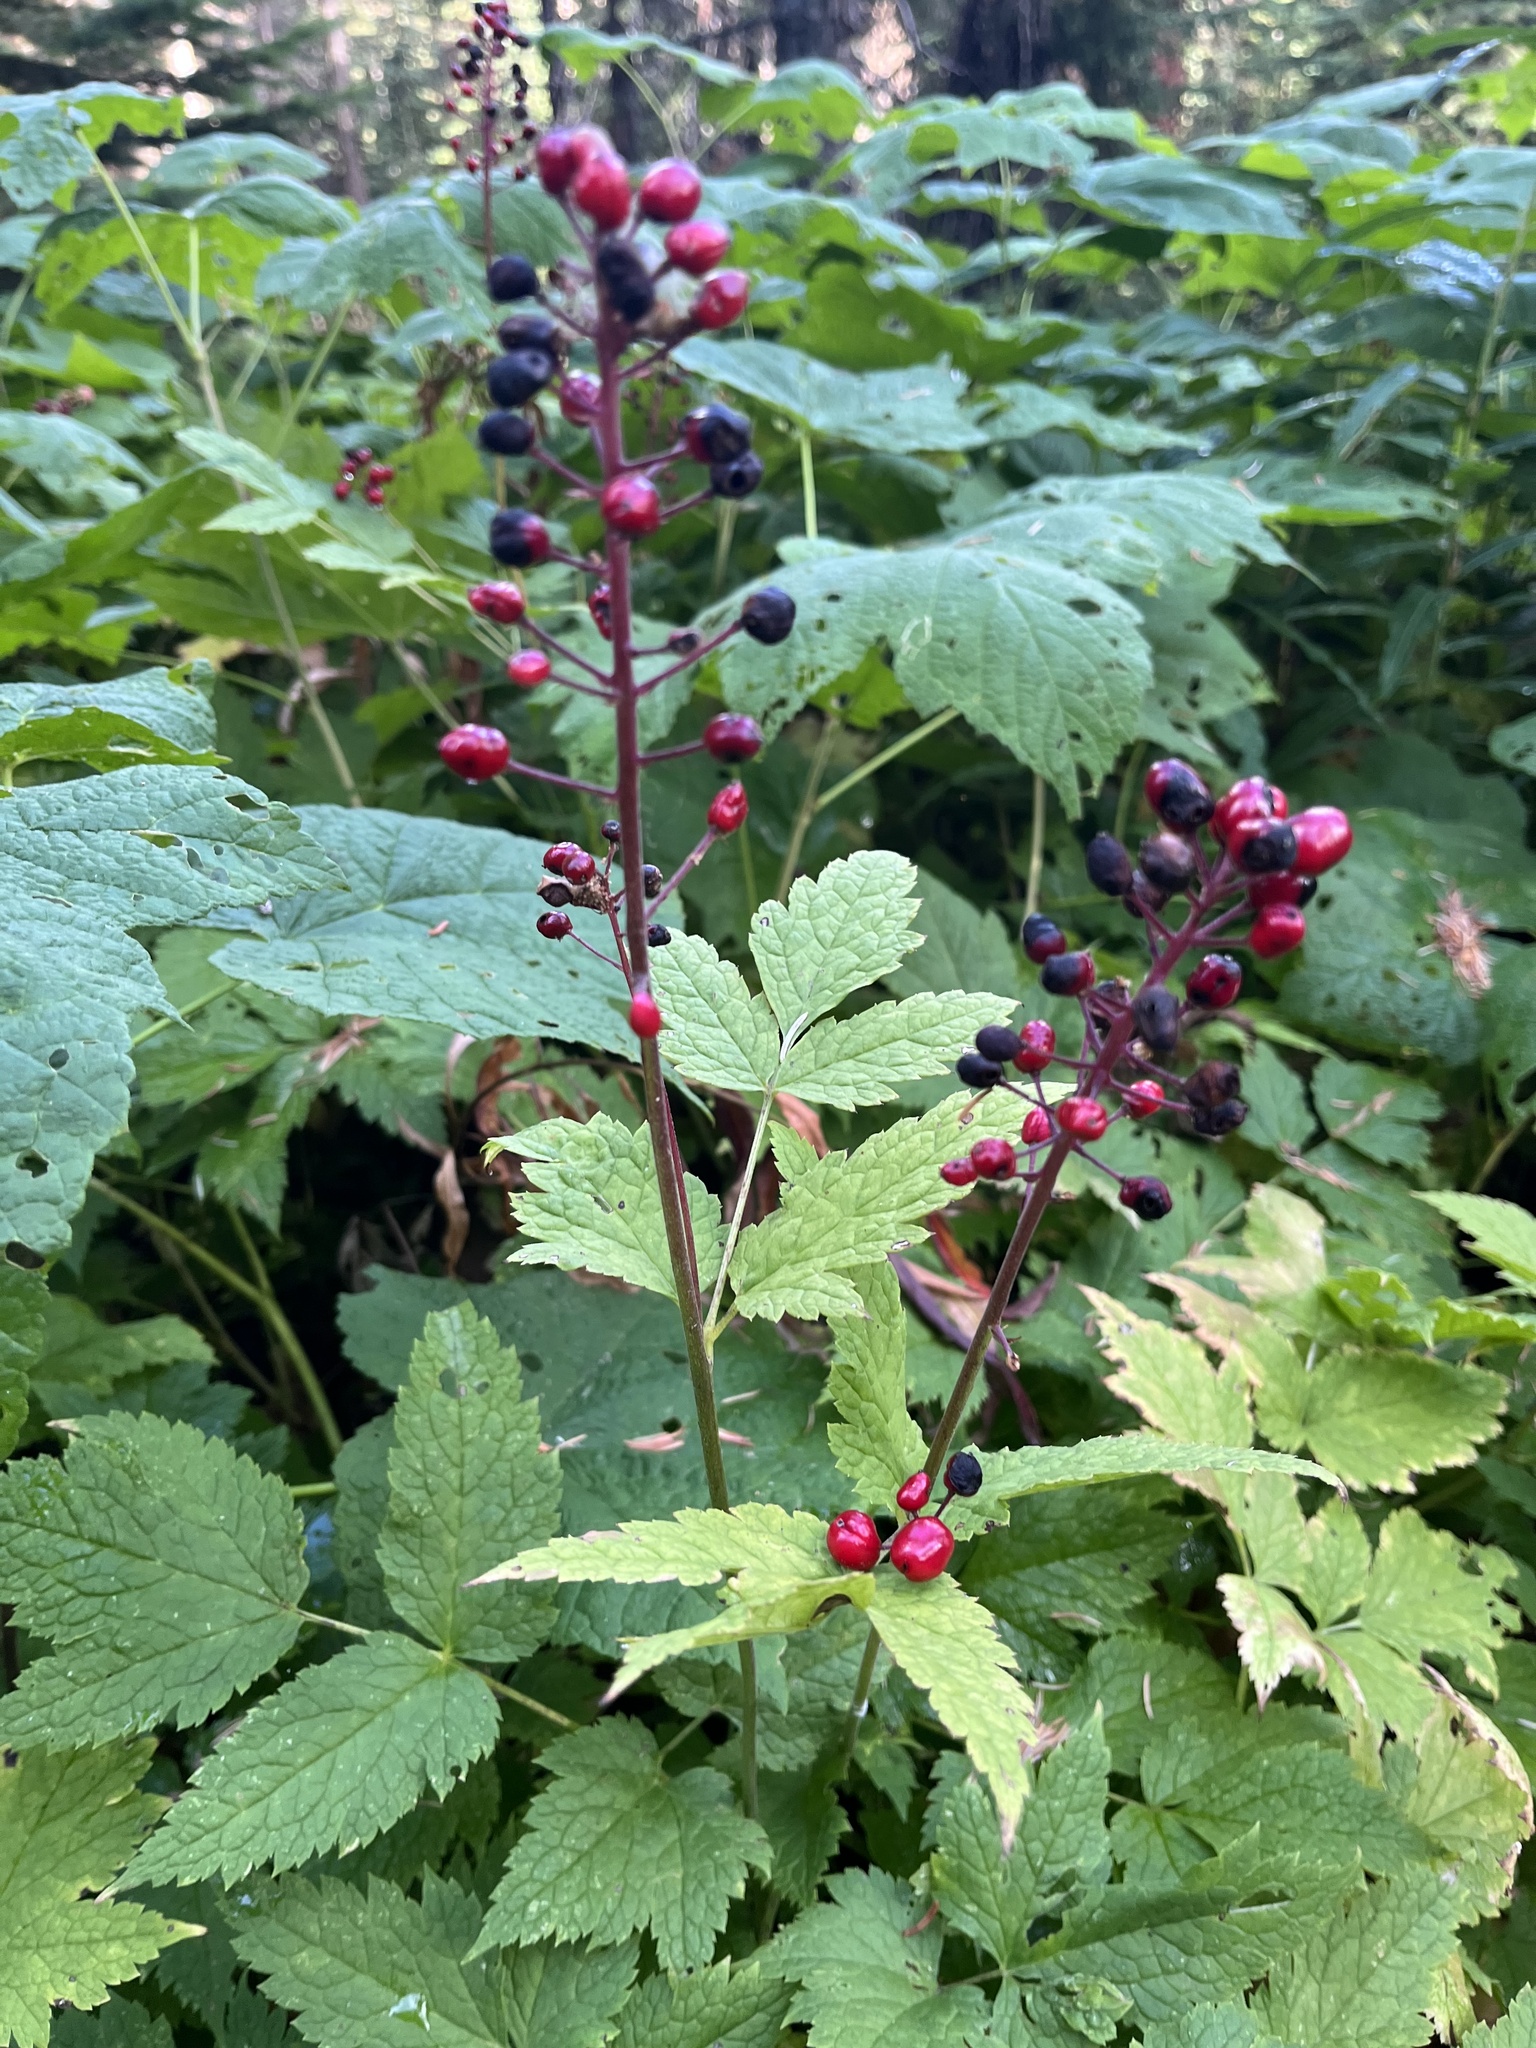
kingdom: Plantae
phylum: Tracheophyta
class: Magnoliopsida
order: Ranunculales
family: Ranunculaceae
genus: Actaea
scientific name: Actaea rubra
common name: Red baneberry
